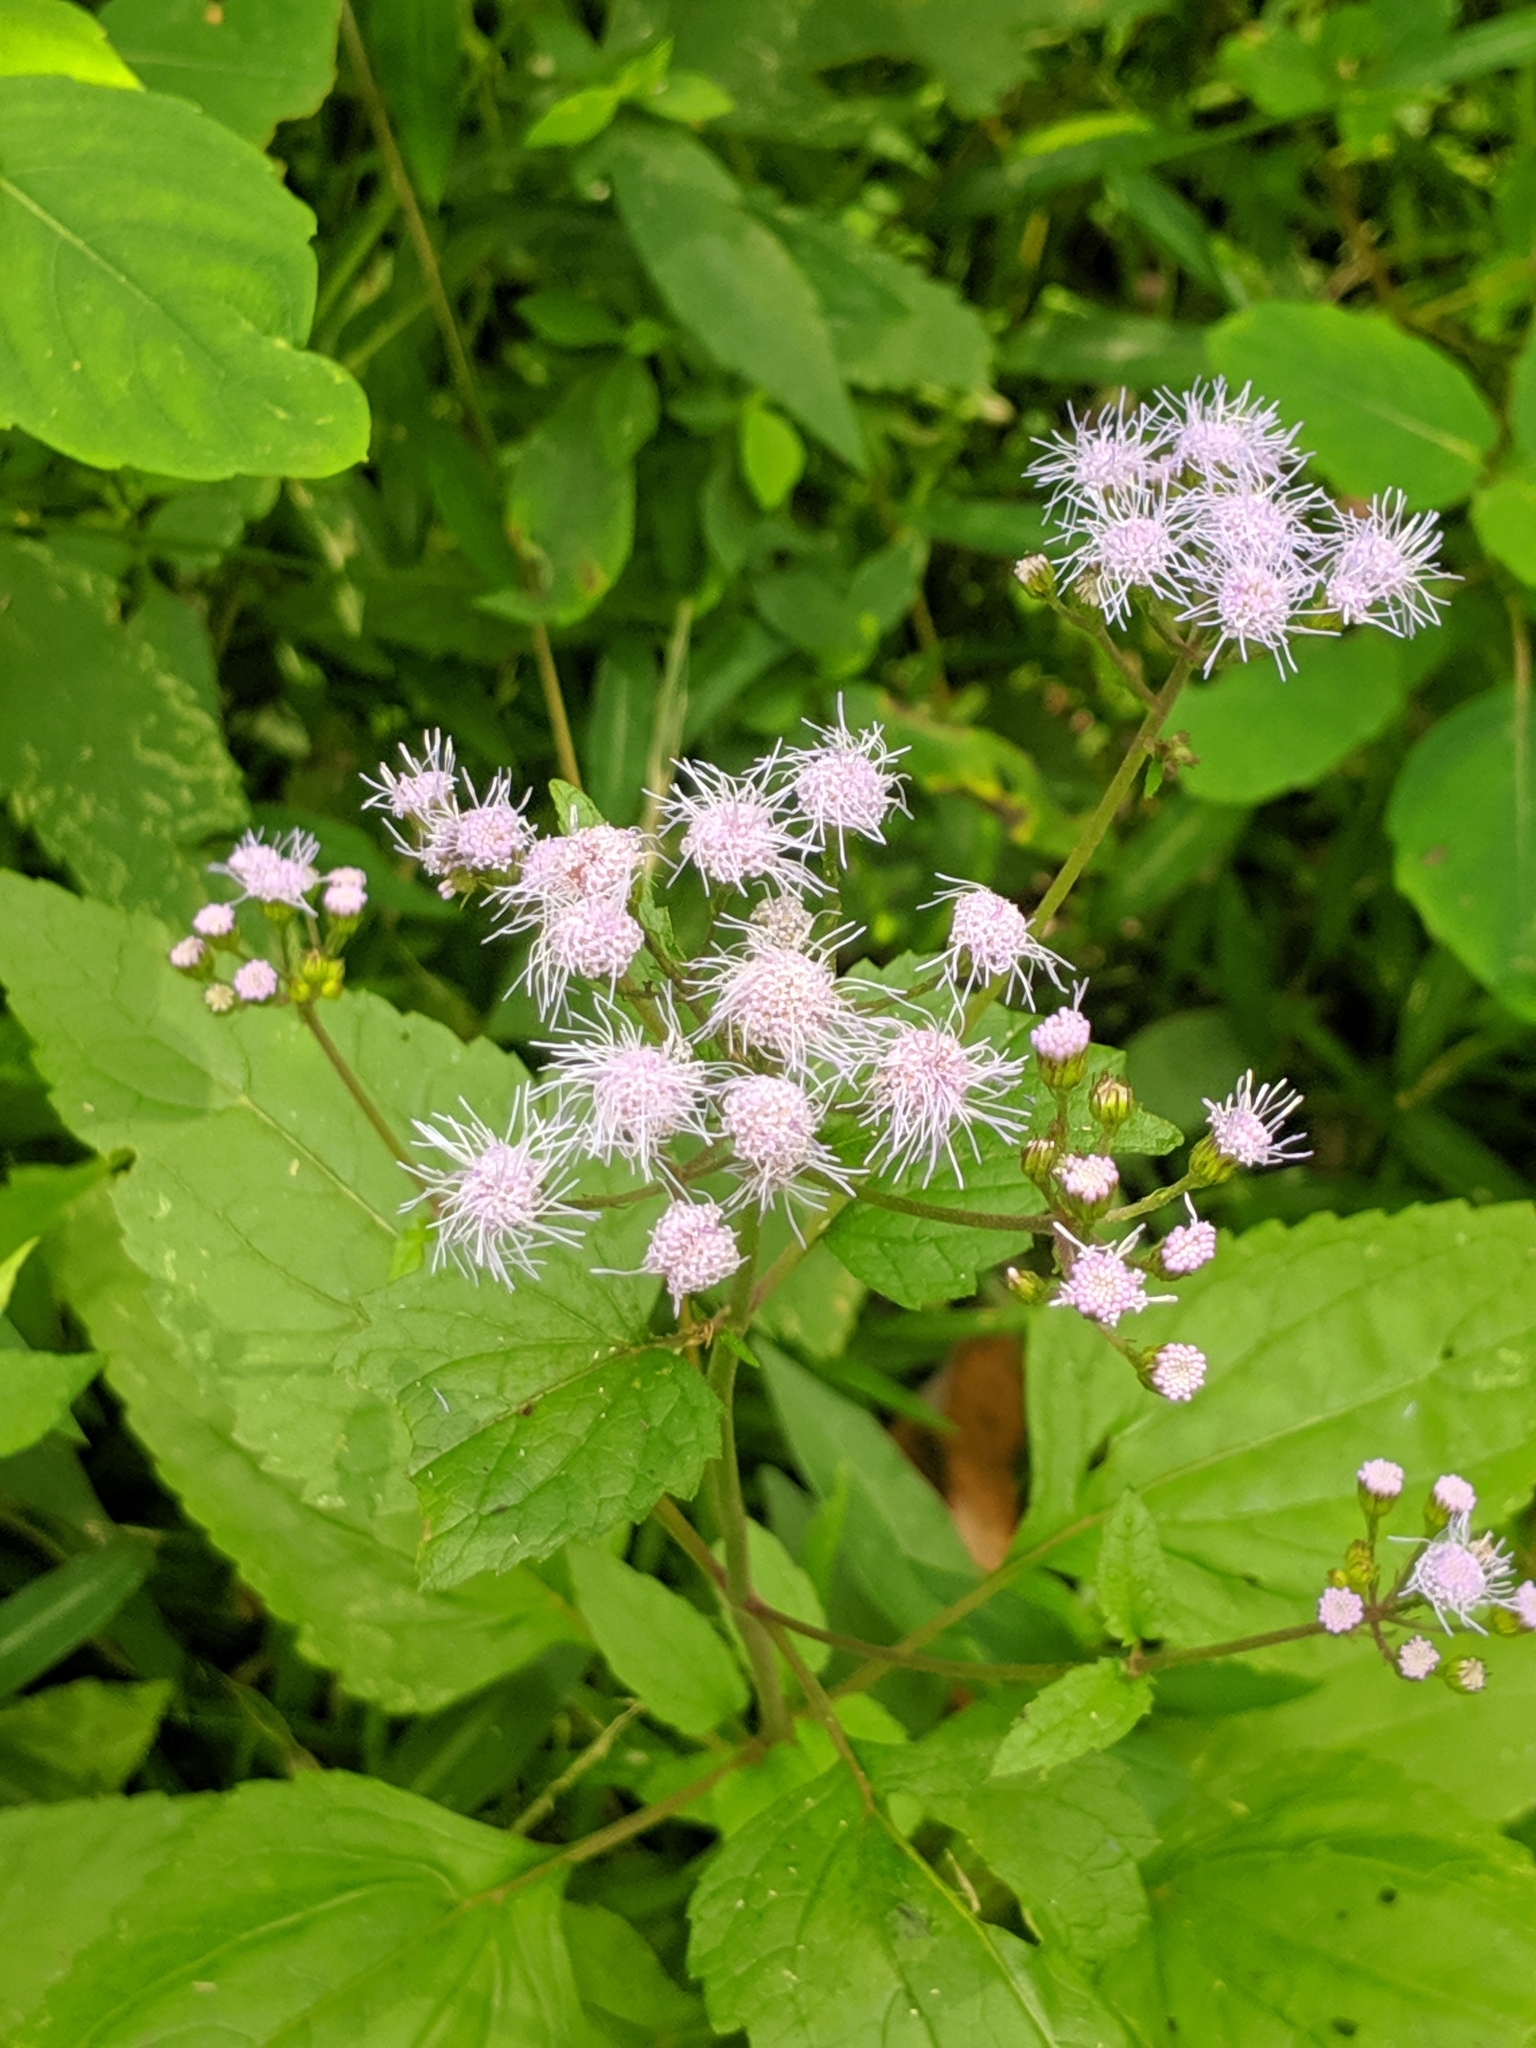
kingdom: Plantae
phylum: Tracheophyta
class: Magnoliopsida
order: Asterales
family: Asteraceae
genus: Conoclinium
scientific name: Conoclinium coelestinum
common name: Blue mistflower
